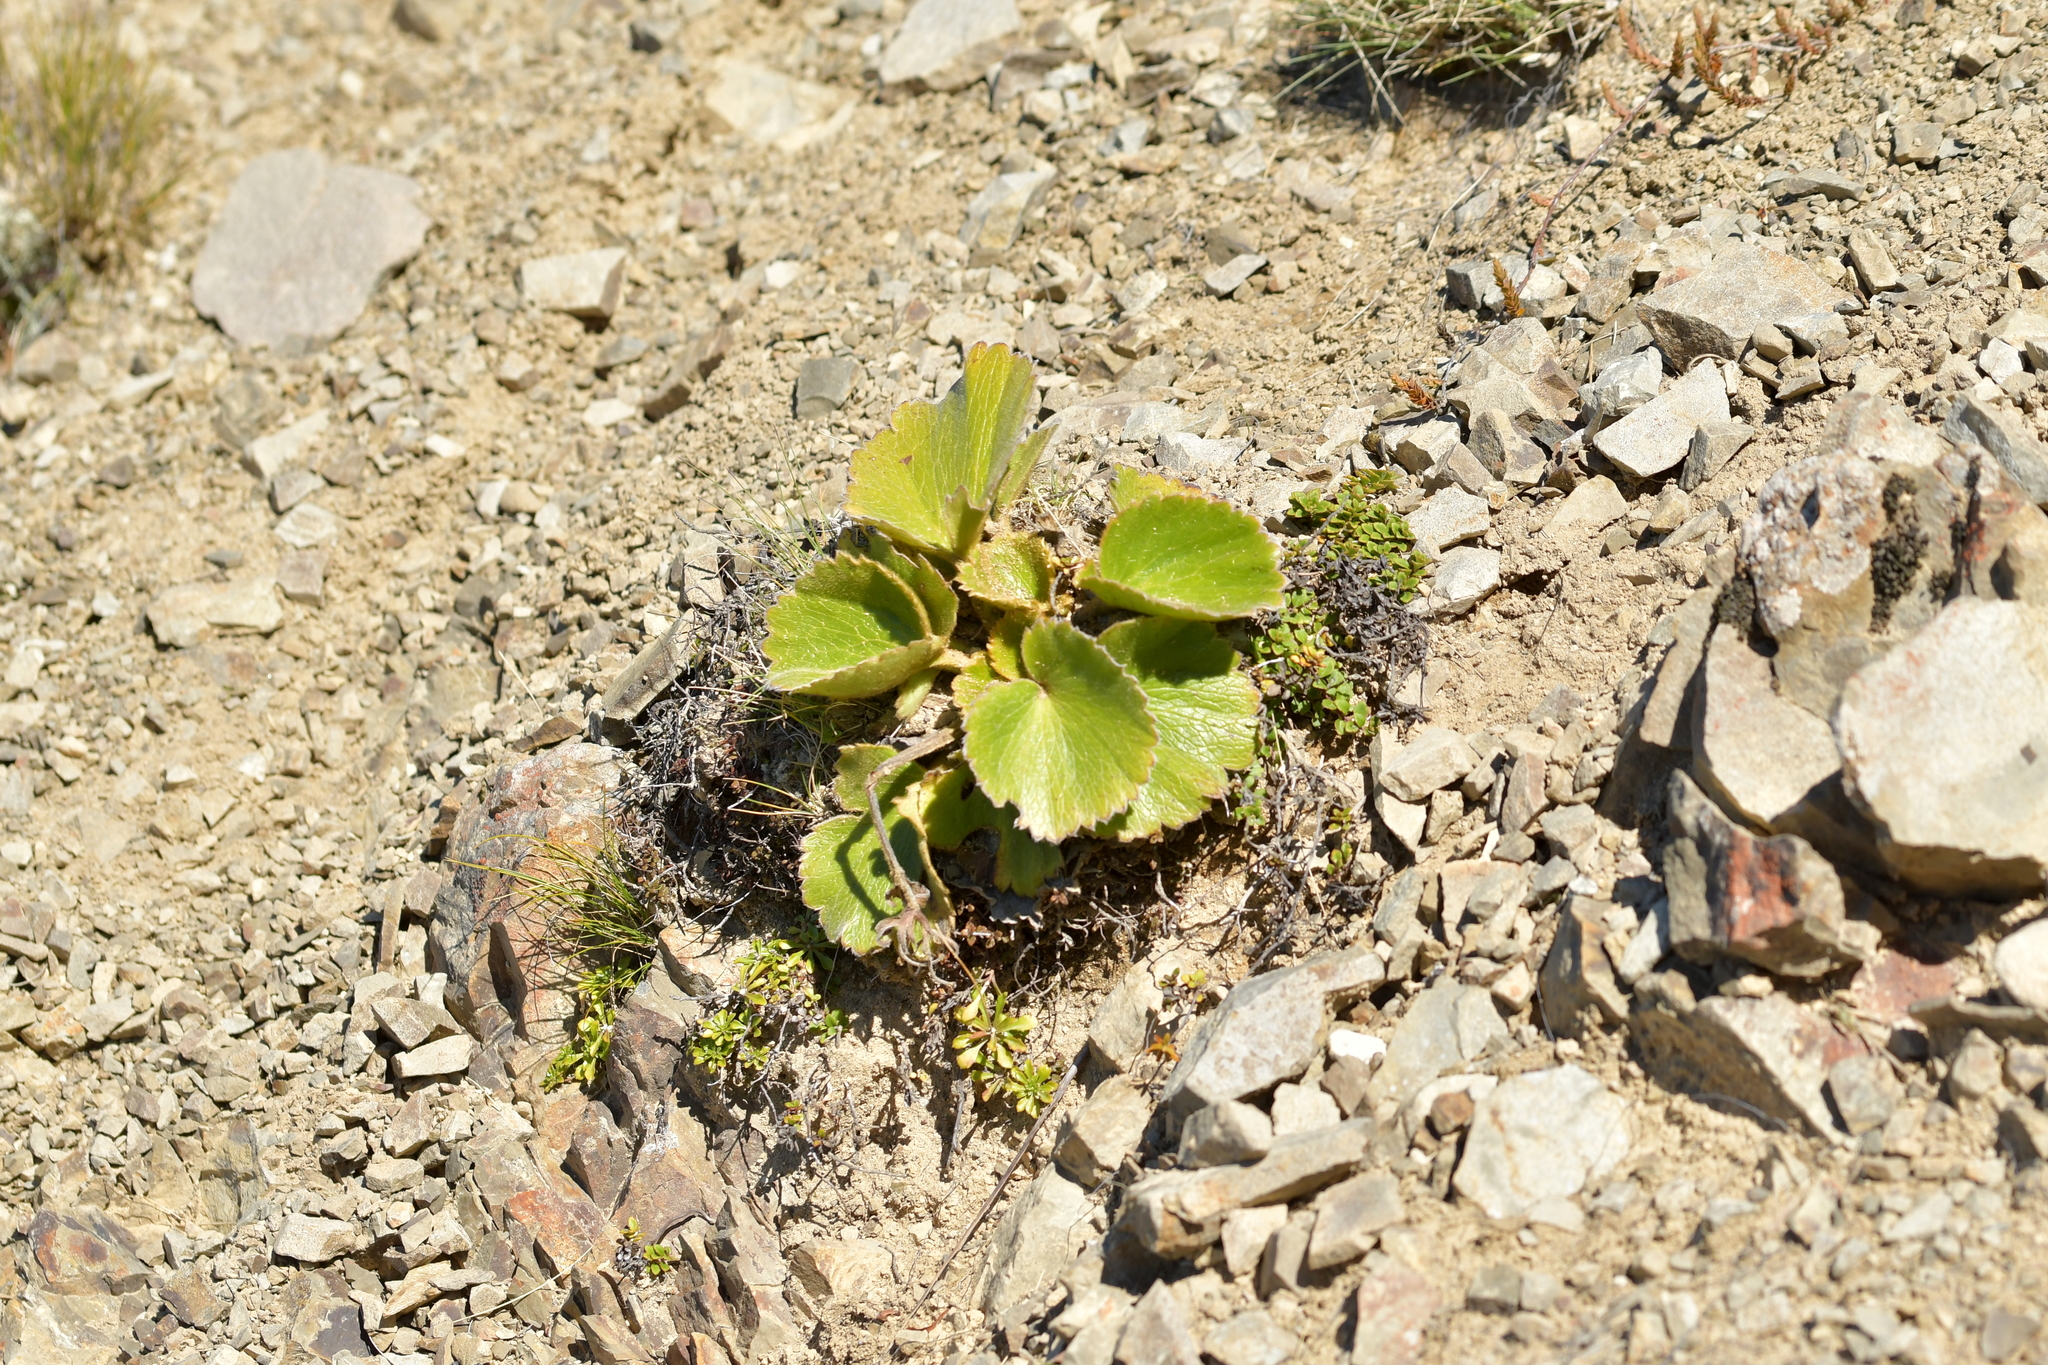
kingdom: Plantae
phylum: Tracheophyta
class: Magnoliopsida
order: Ranunculales
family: Ranunculaceae
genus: Ranunculus
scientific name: Ranunculus insignis
